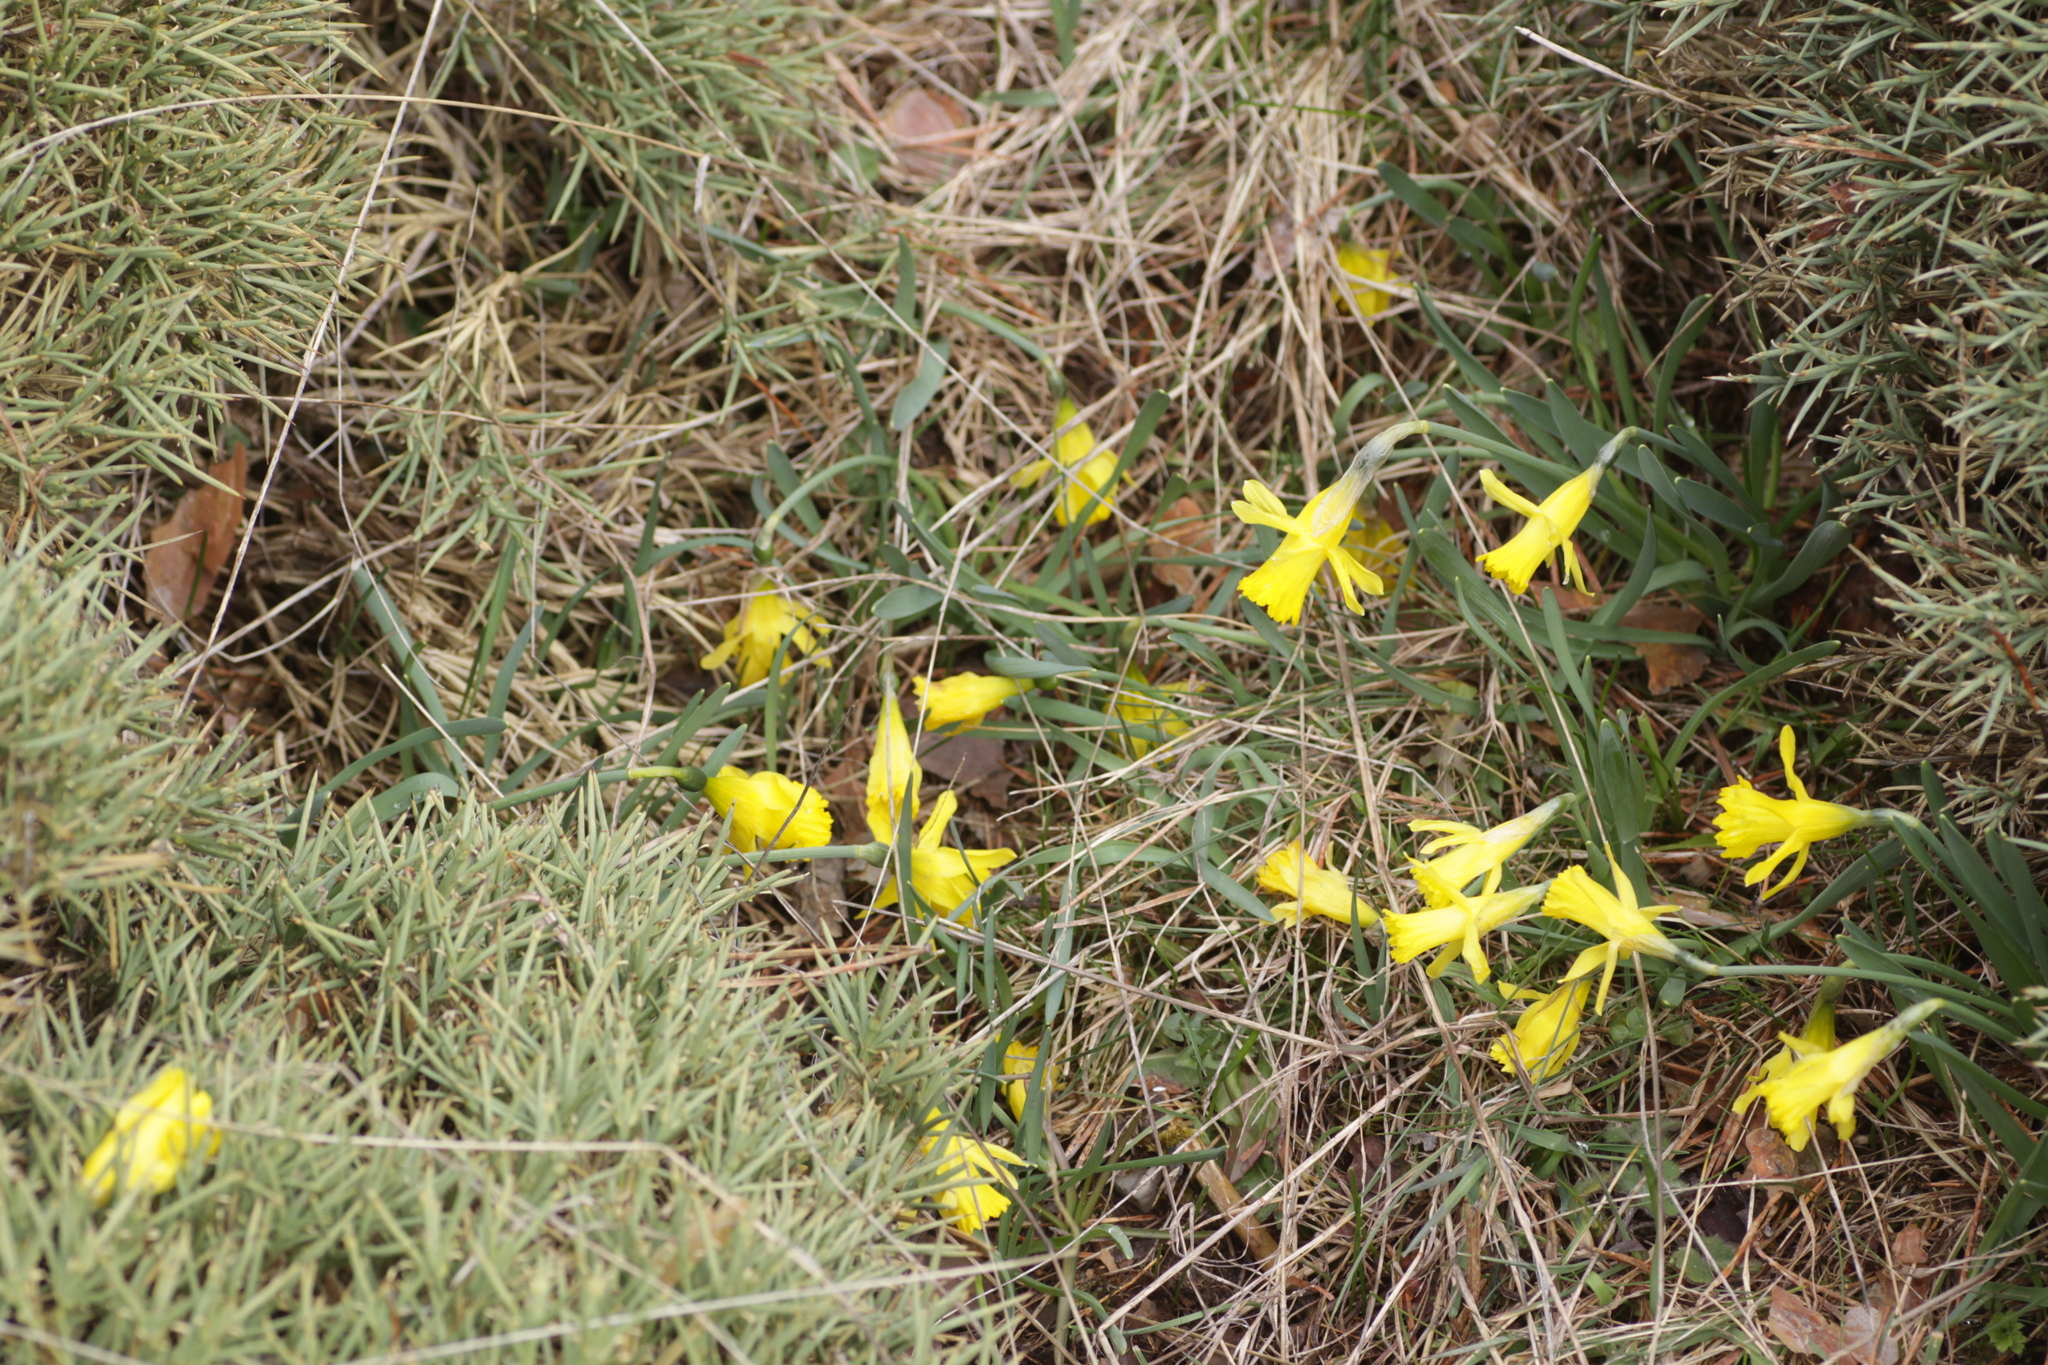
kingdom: Plantae
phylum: Tracheophyta
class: Liliopsida
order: Asparagales
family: Amaryllidaceae
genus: Narcissus
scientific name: Narcissus minor
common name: Lesser daffodil
